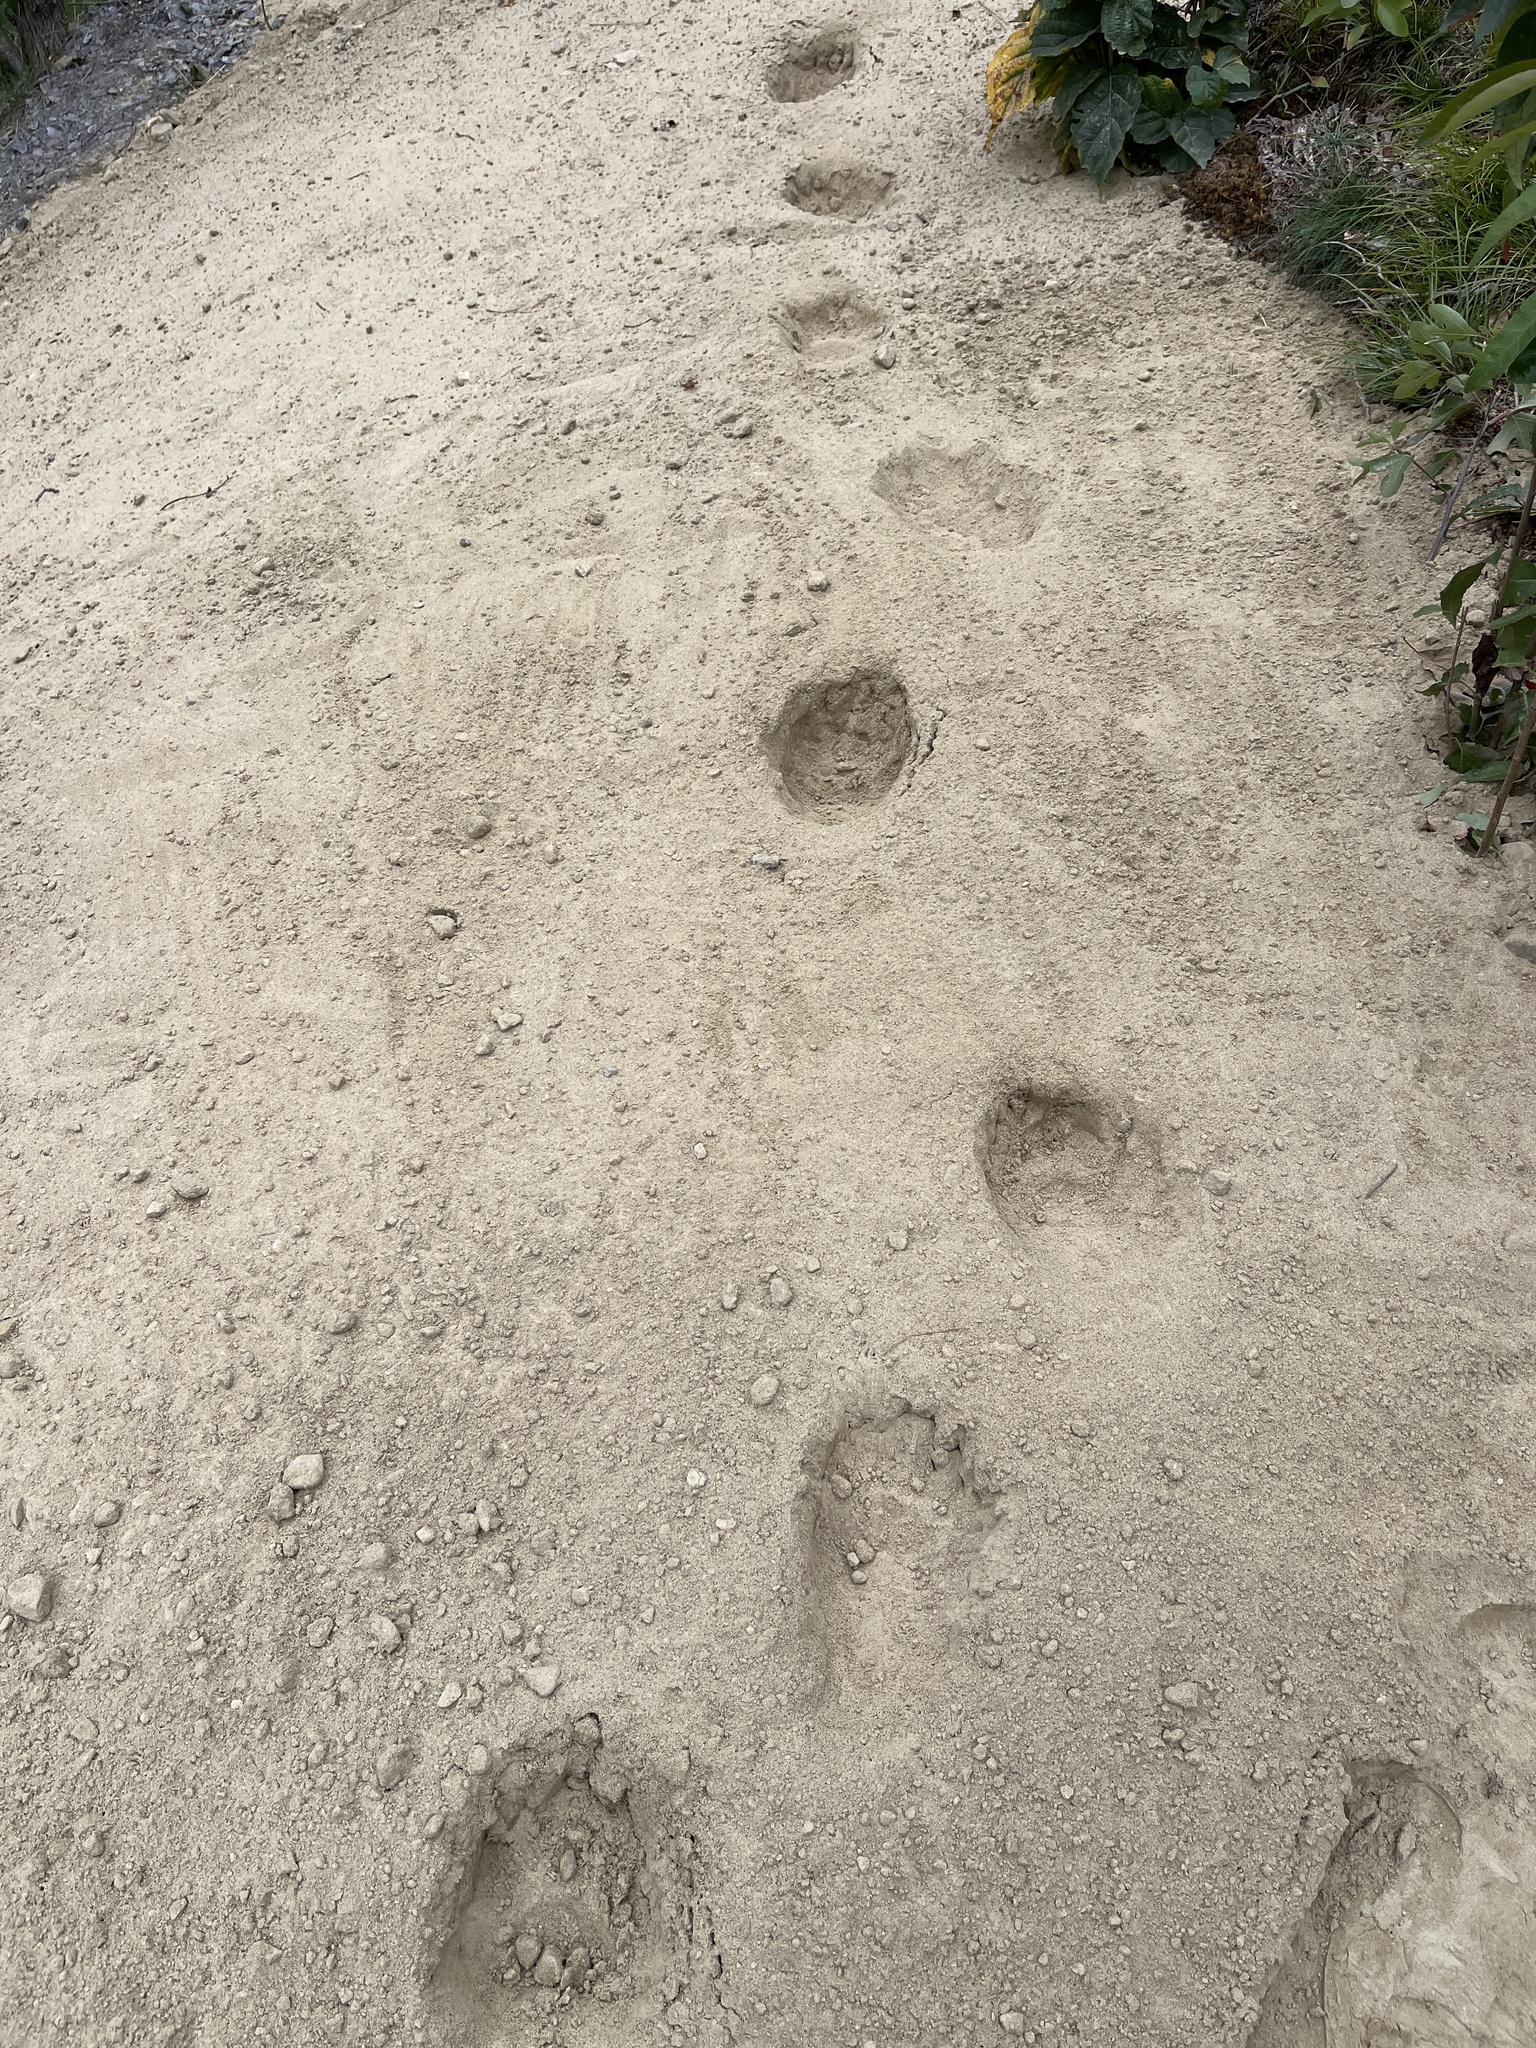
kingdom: Animalia
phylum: Chordata
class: Mammalia
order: Carnivora
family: Ursidae
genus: Ursus
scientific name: Ursus americanus
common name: American black bear
